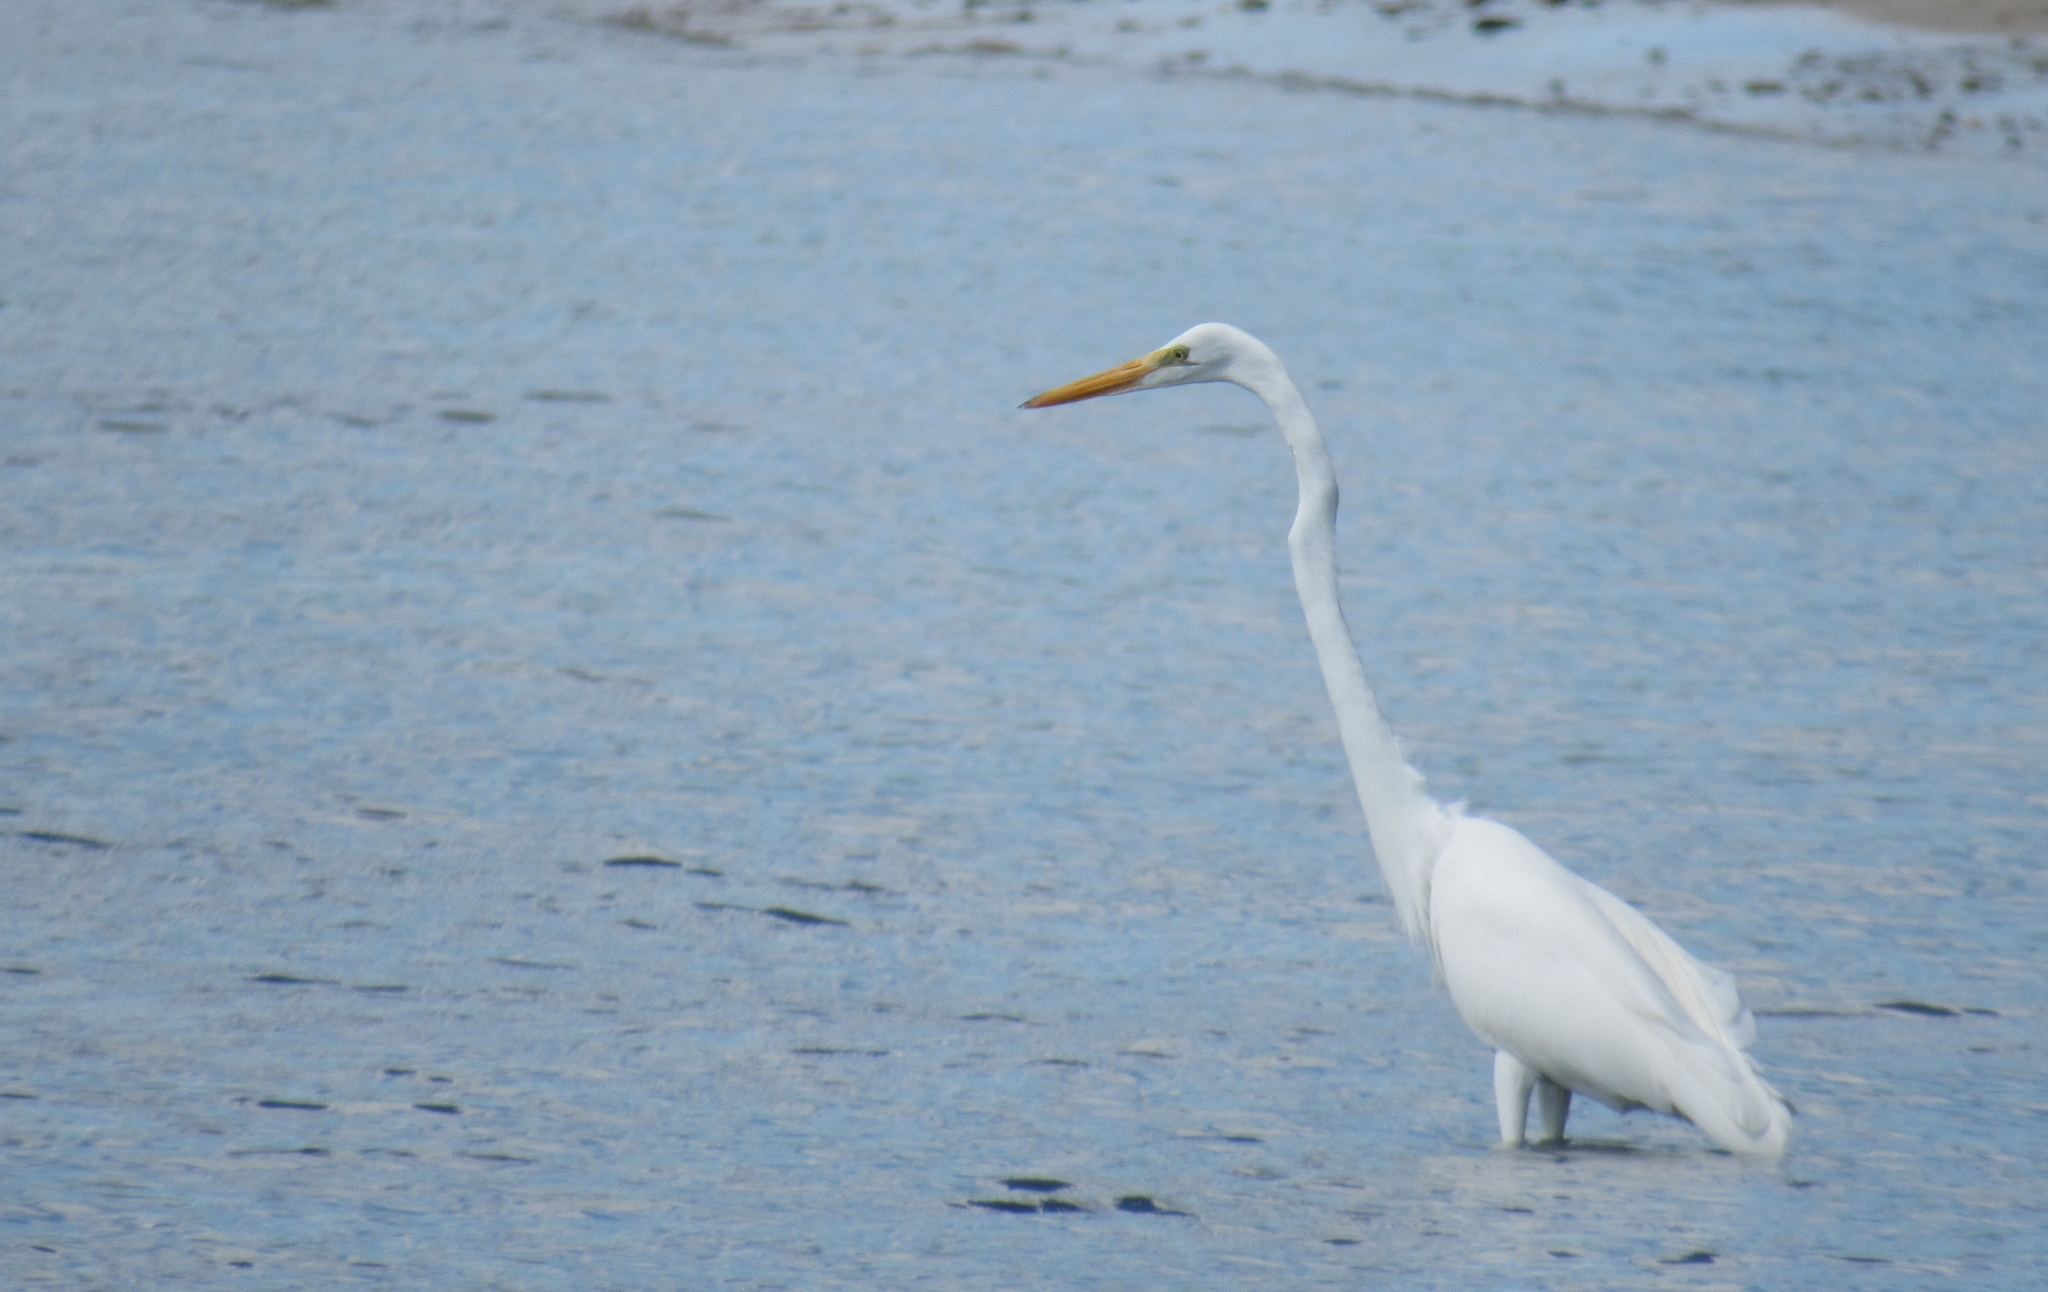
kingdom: Animalia
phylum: Chordata
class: Aves
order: Pelecaniformes
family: Ardeidae
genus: Ardea
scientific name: Ardea alba
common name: Great egret
